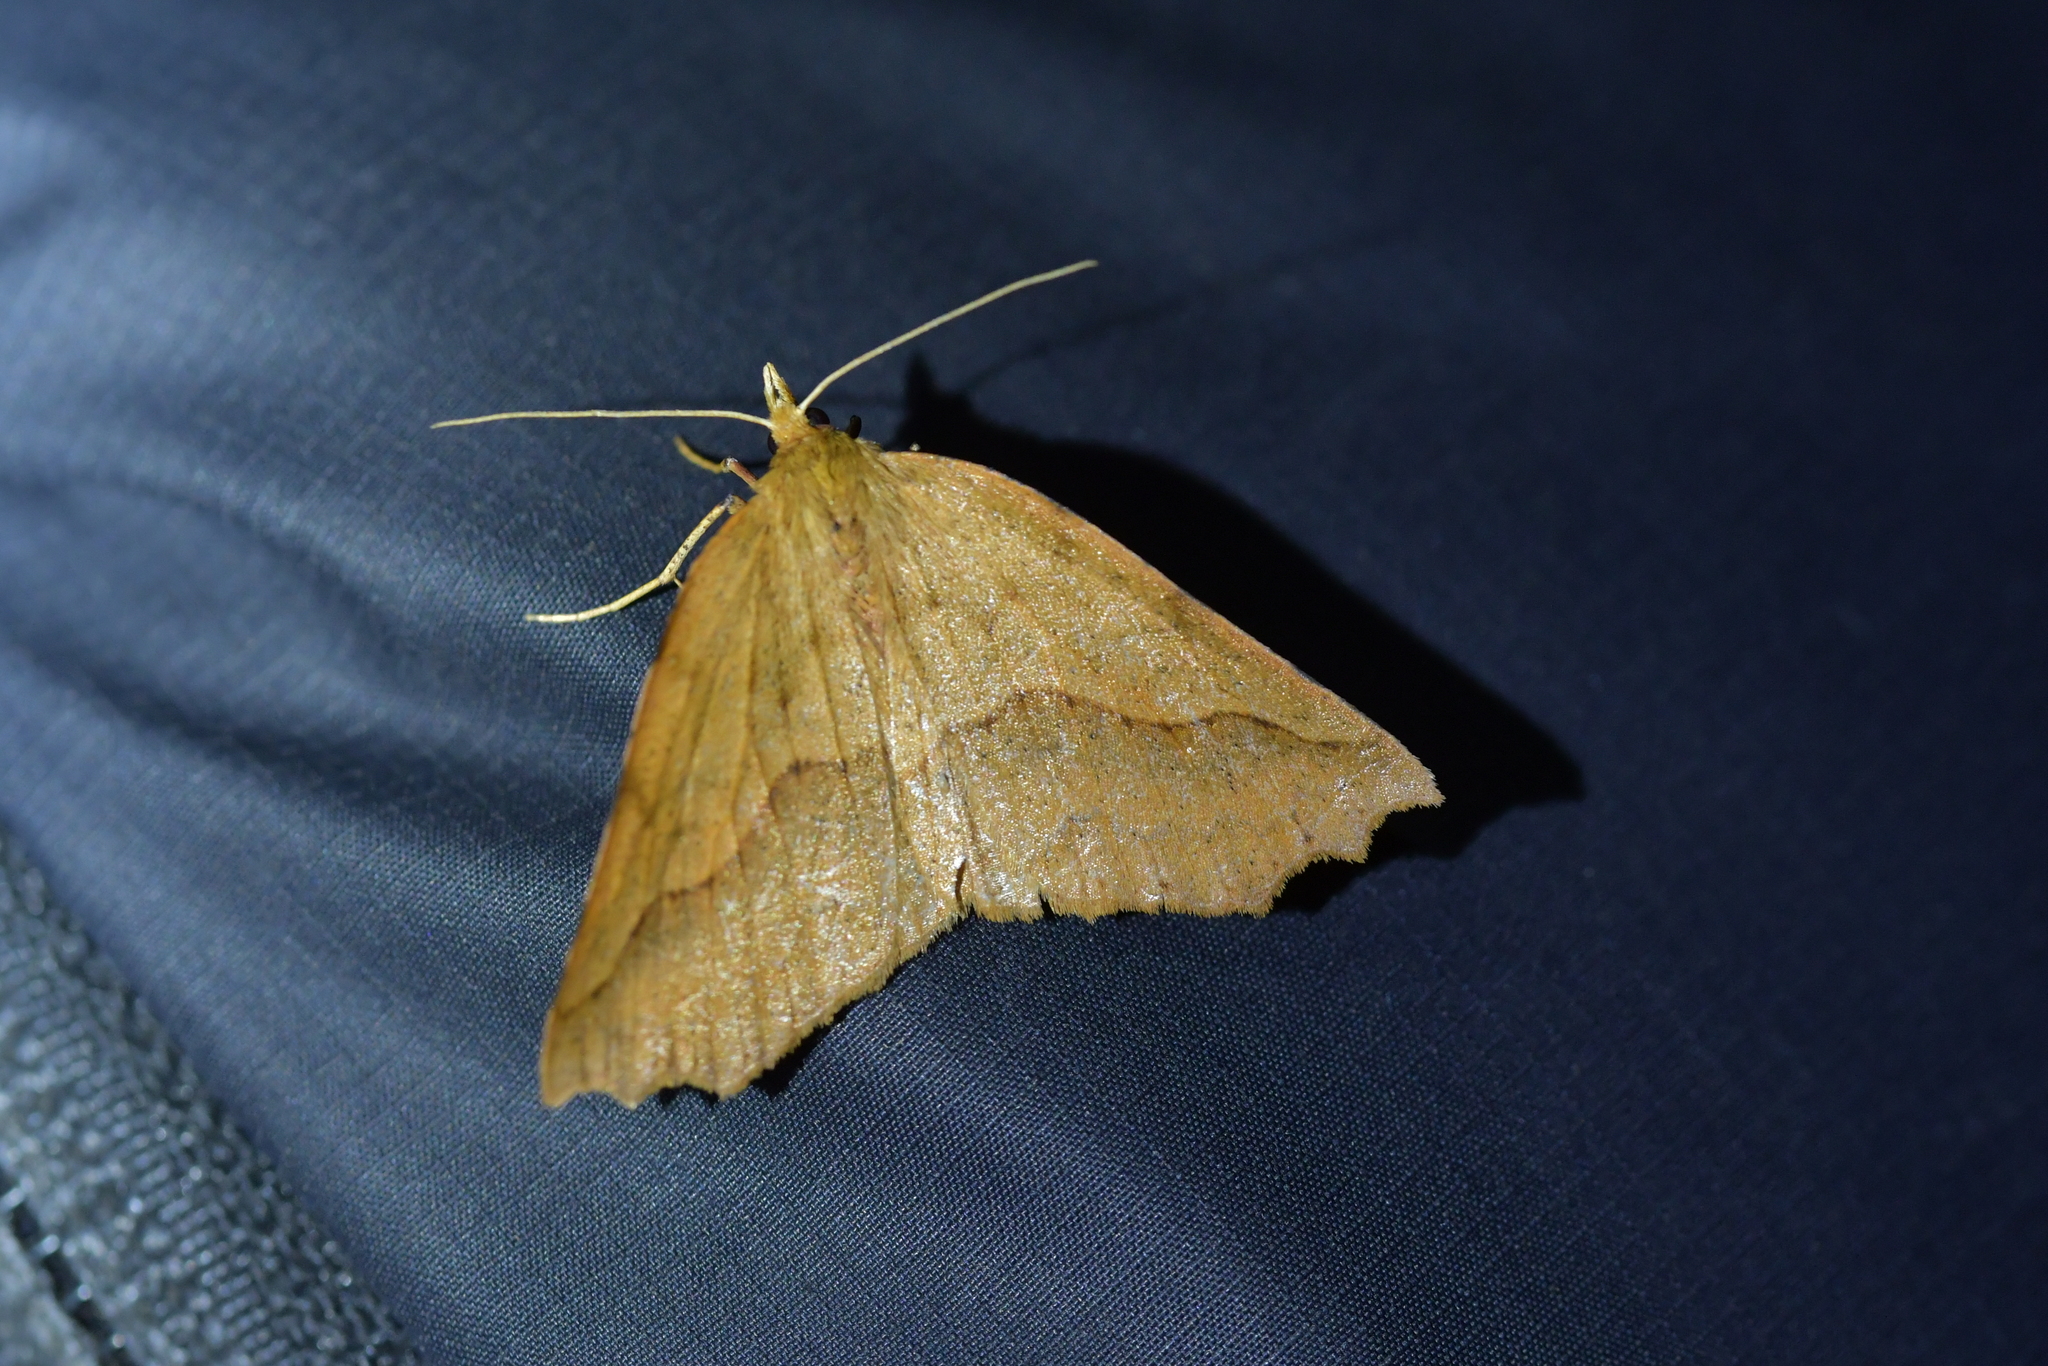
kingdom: Animalia
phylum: Arthropoda
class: Insecta
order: Lepidoptera
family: Geometridae
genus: Ischalis
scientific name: Ischalis variabilis
